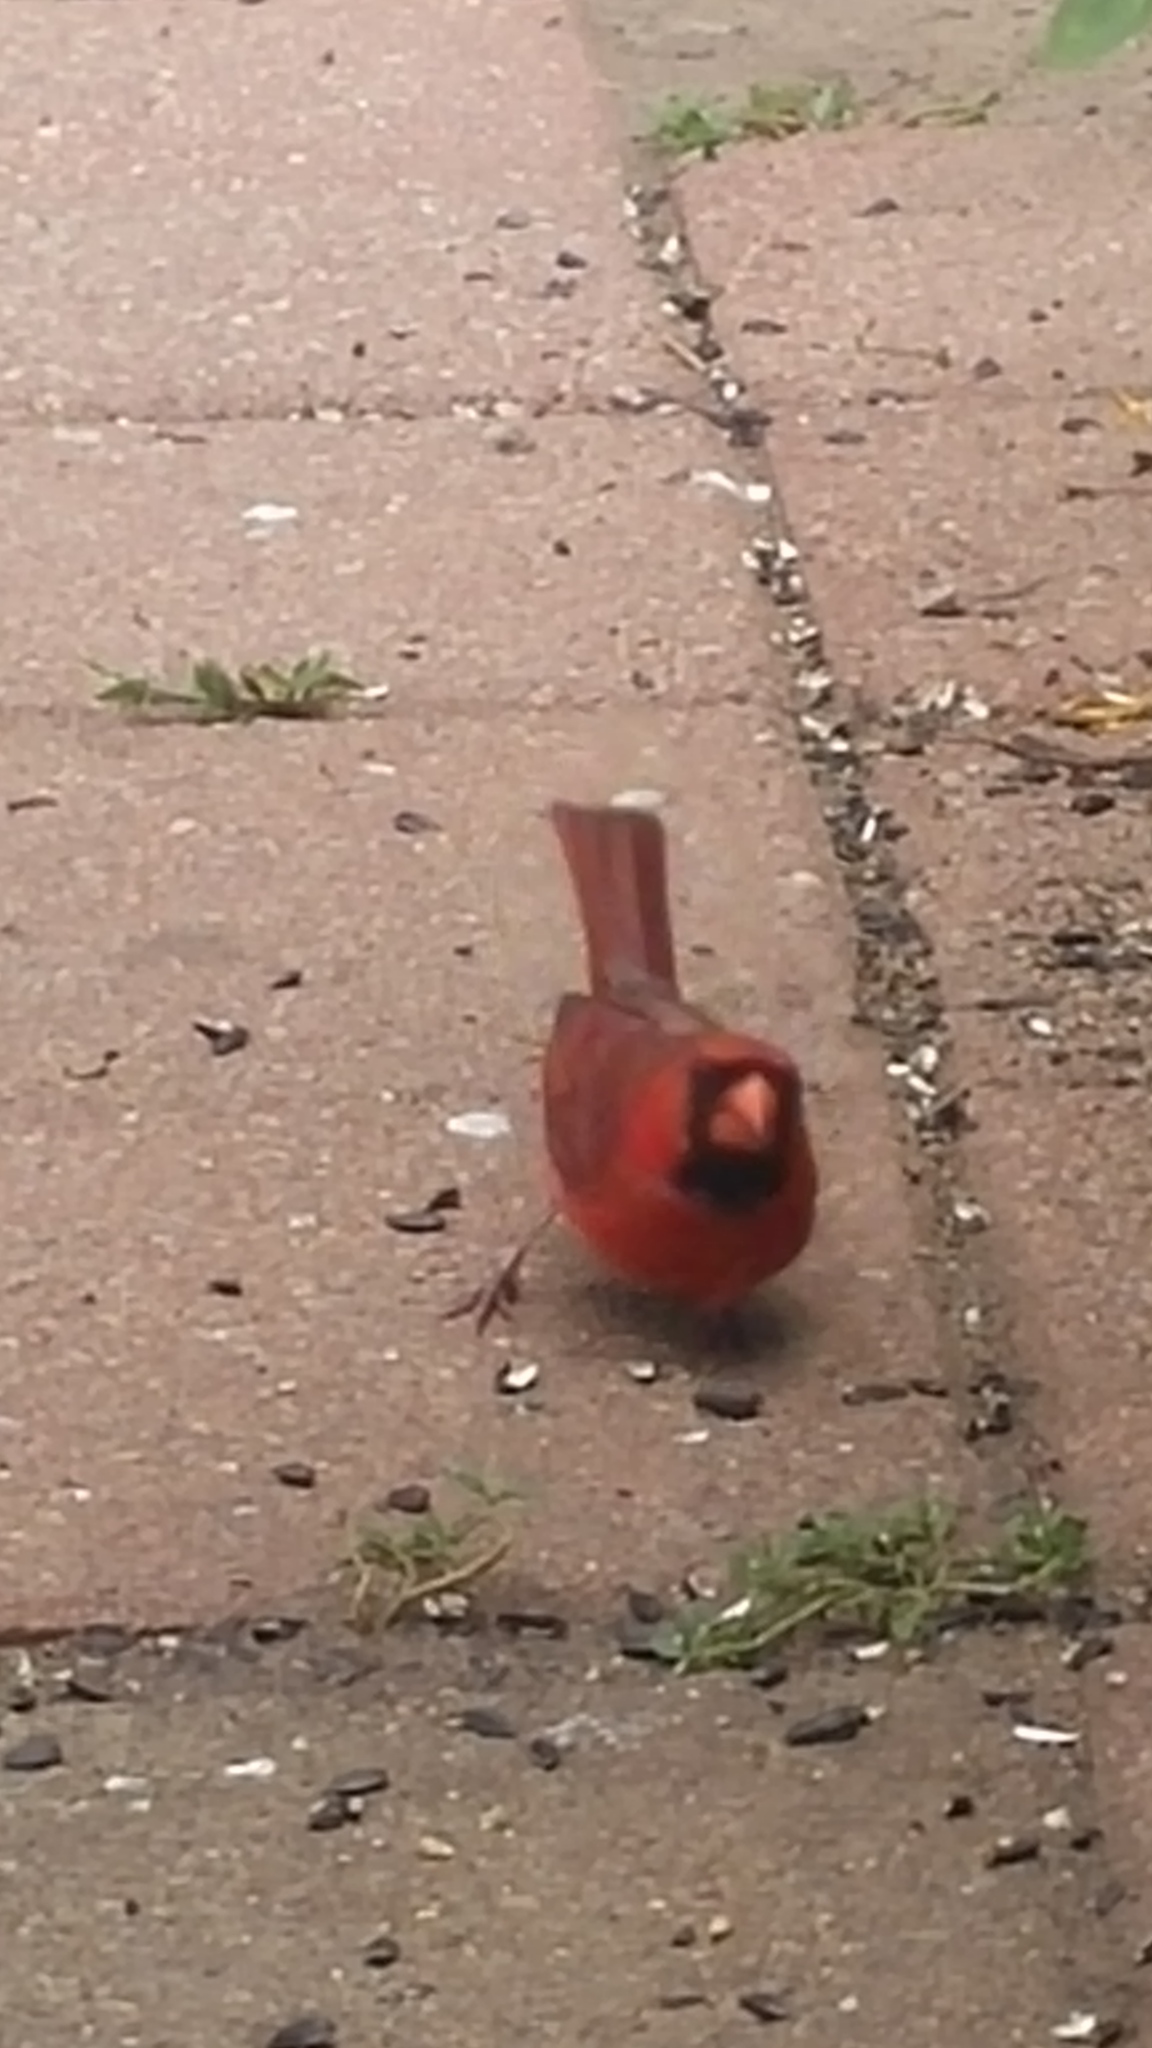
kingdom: Animalia
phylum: Chordata
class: Aves
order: Passeriformes
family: Cardinalidae
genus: Cardinalis
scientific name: Cardinalis cardinalis
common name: Northern cardinal
